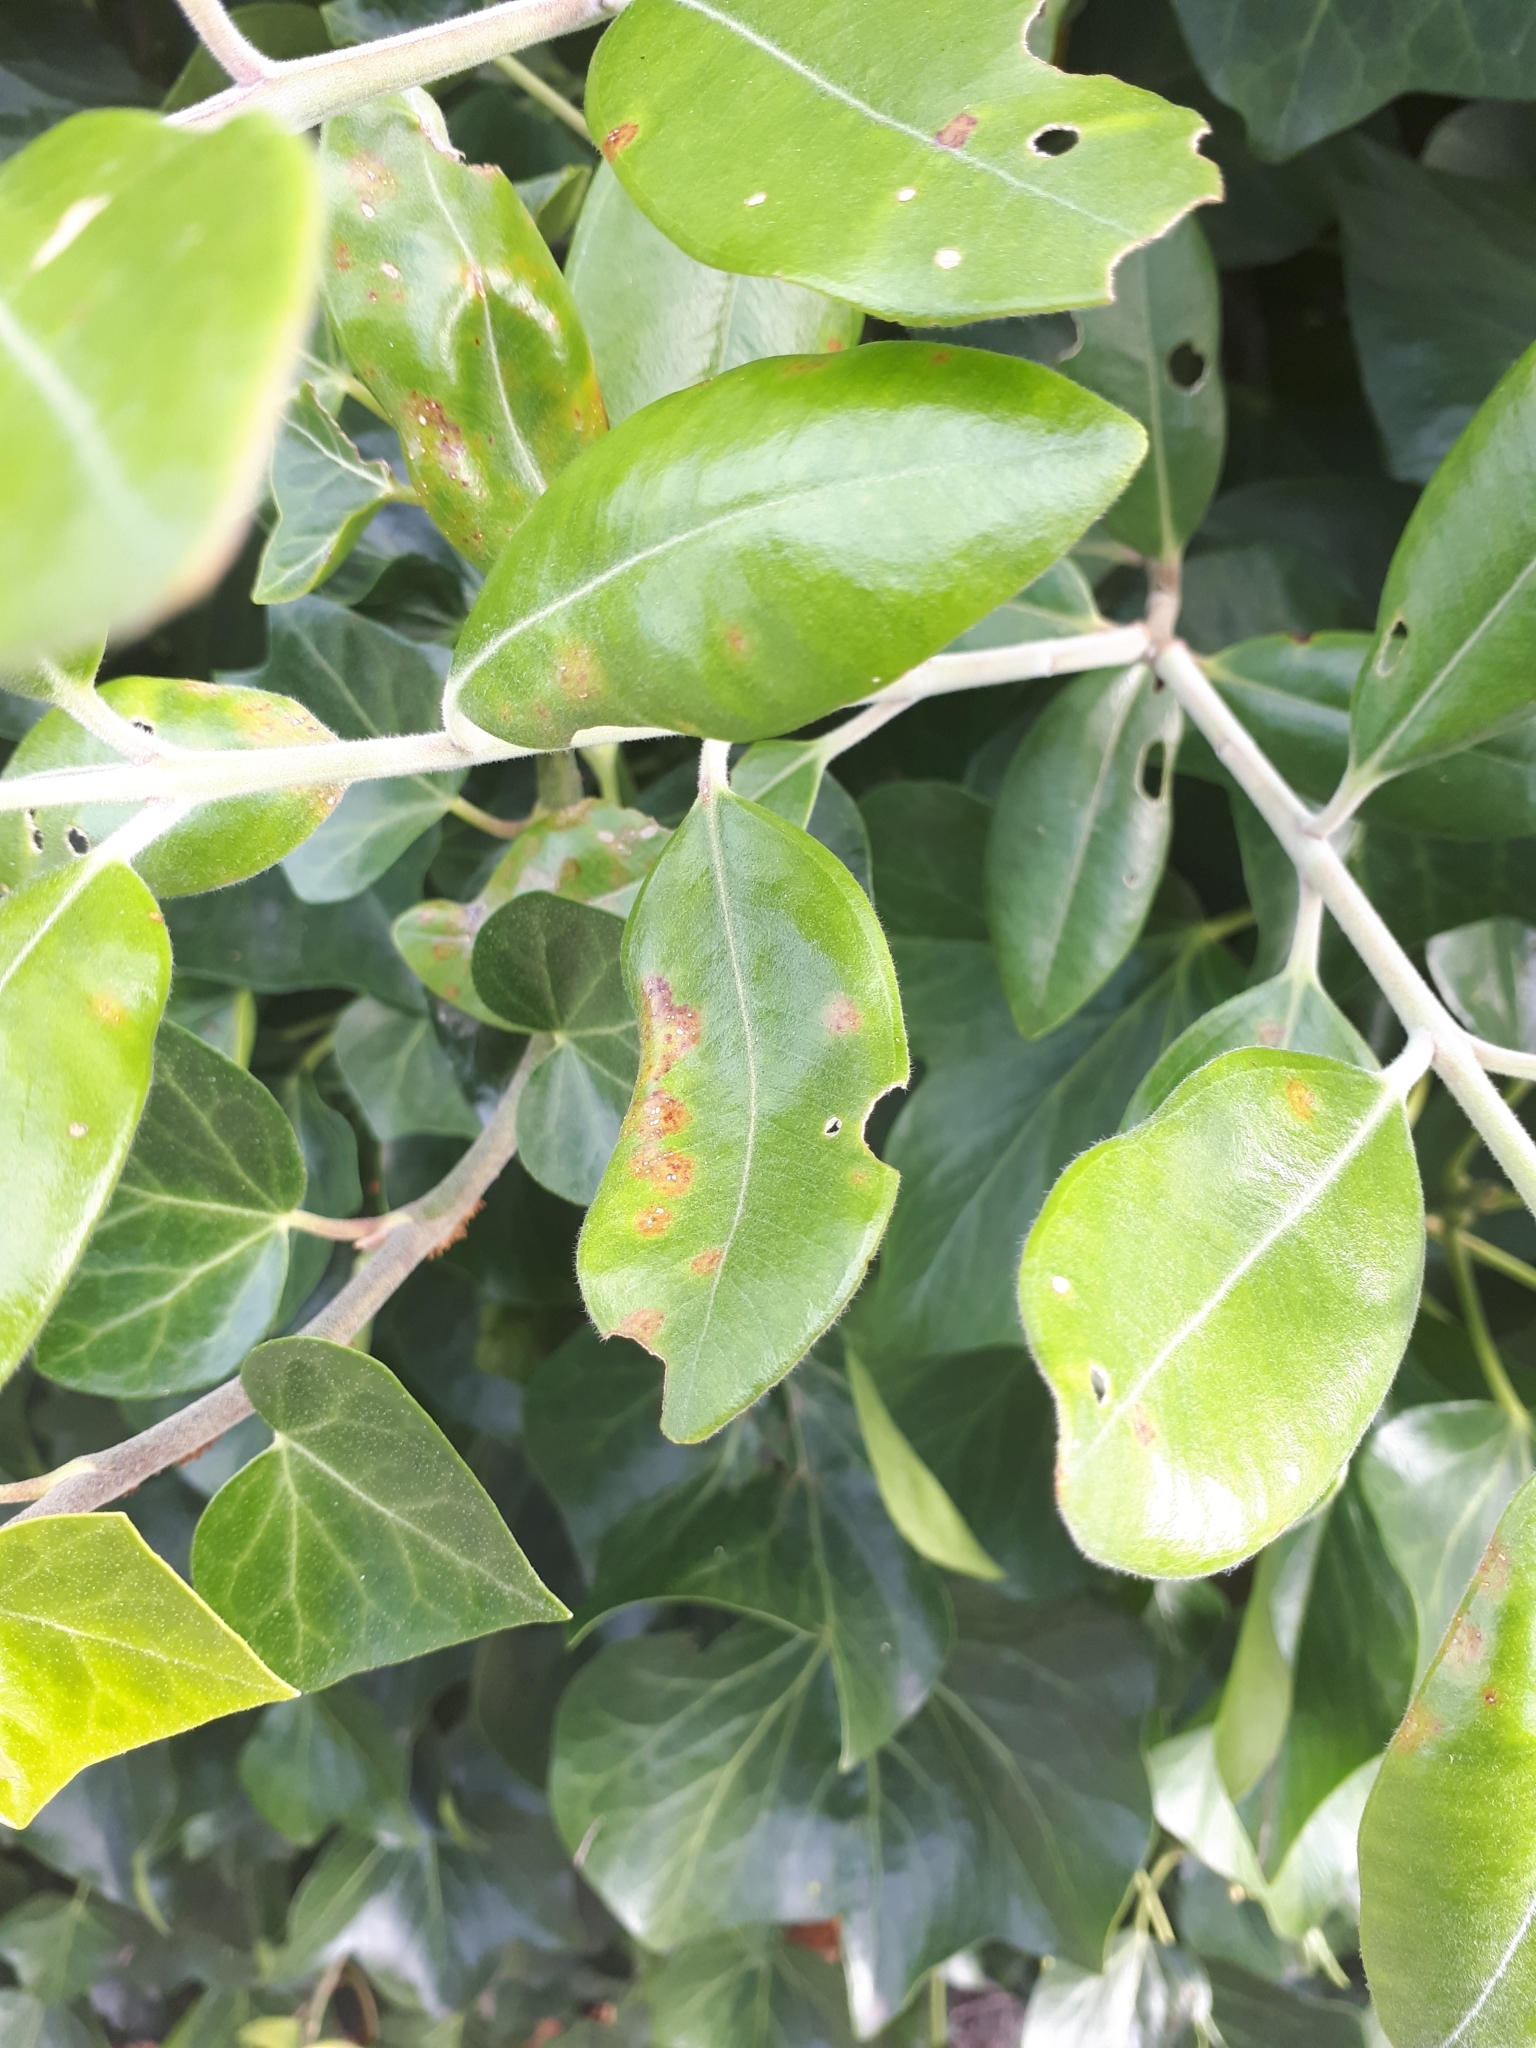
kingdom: Fungi
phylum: Basidiomycota
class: Pucciniomycetes
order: Pucciniales
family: Sphaerophragmiaceae
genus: Austropuccinia
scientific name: Austropuccinia psidii
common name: Myrtle rust
